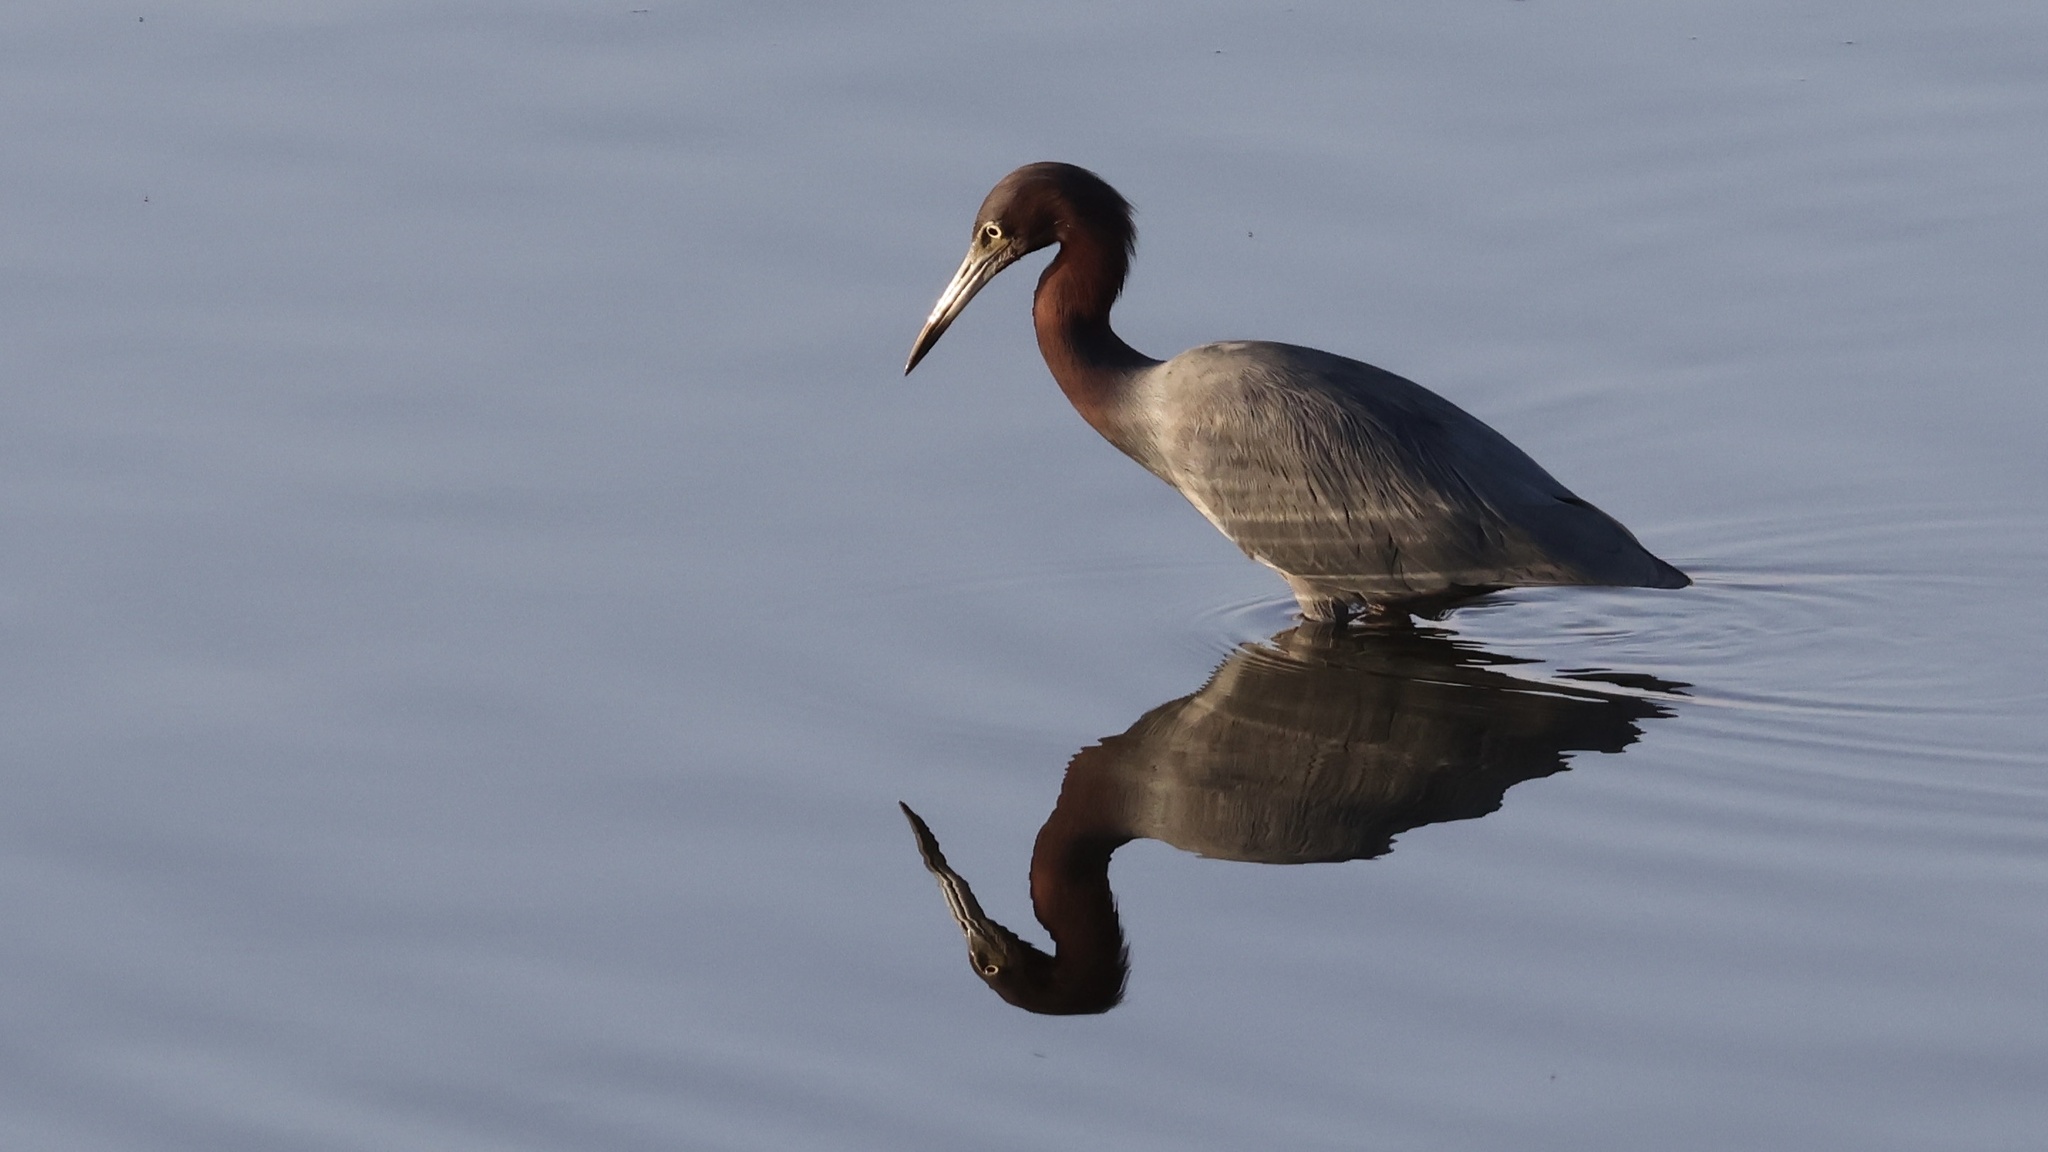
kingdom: Animalia
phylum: Chordata
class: Aves
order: Pelecaniformes
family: Ardeidae
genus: Egretta
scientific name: Egretta caerulea
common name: Little blue heron
